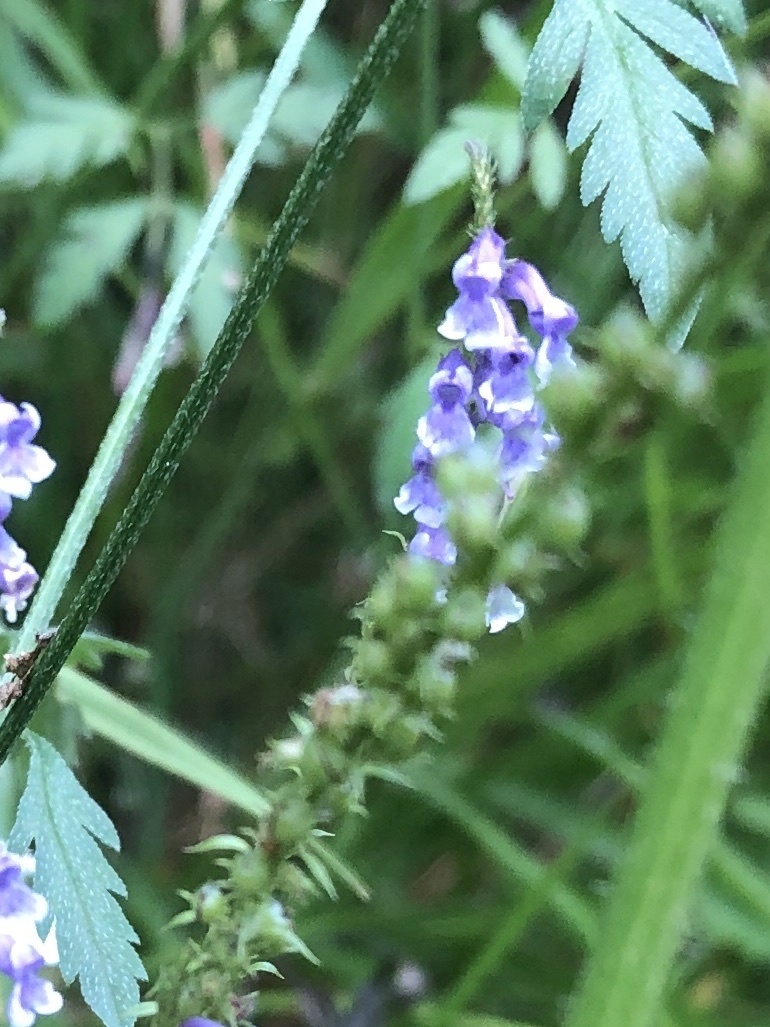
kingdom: Plantae
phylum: Tracheophyta
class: Magnoliopsida
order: Lamiales
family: Plantaginaceae
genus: Anarrhinum
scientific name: Anarrhinum bellidifolium
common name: Daisy-leaved toadflax
